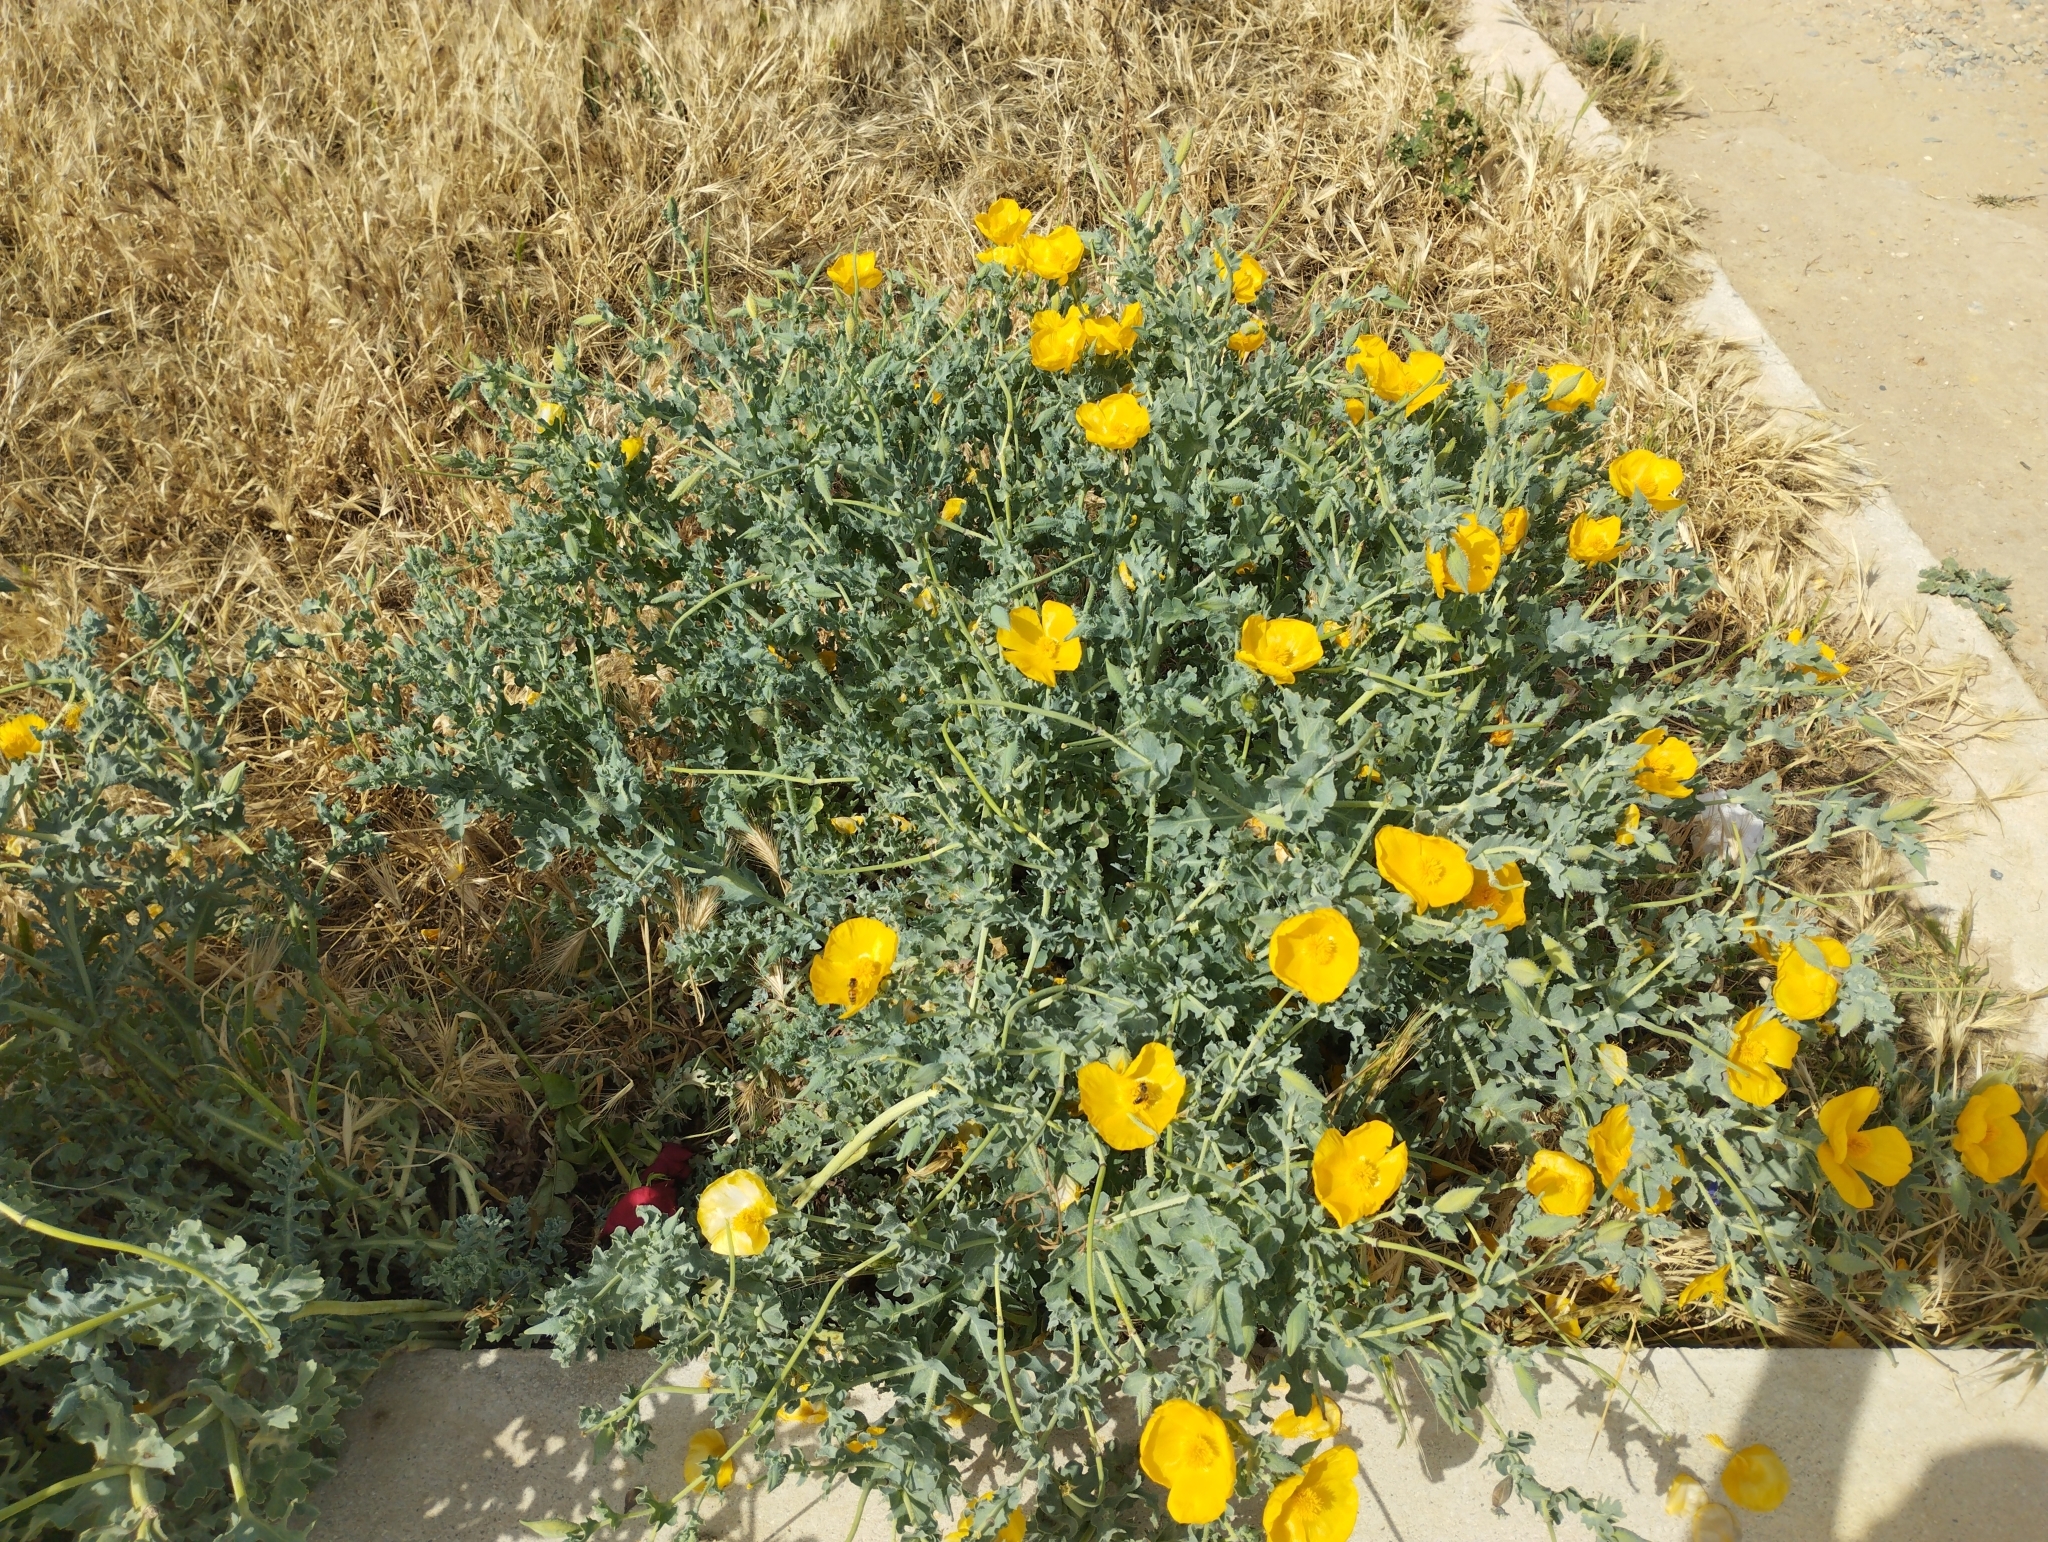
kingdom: Plantae
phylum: Tracheophyta
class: Magnoliopsida
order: Ranunculales
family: Papaveraceae
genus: Glaucium
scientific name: Glaucium flavum
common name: Yellow horned-poppy
